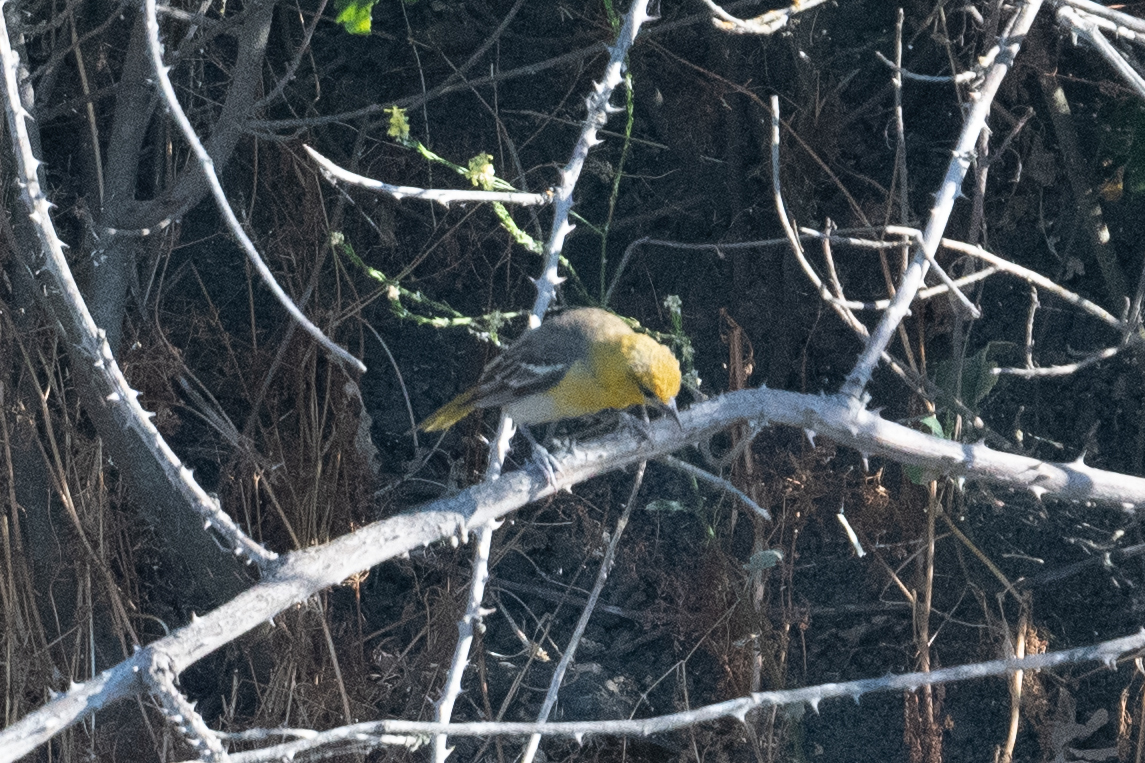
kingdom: Animalia
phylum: Chordata
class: Aves
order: Passeriformes
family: Icteridae
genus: Icterus
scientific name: Icterus bullockii
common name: Bullock's oriole
